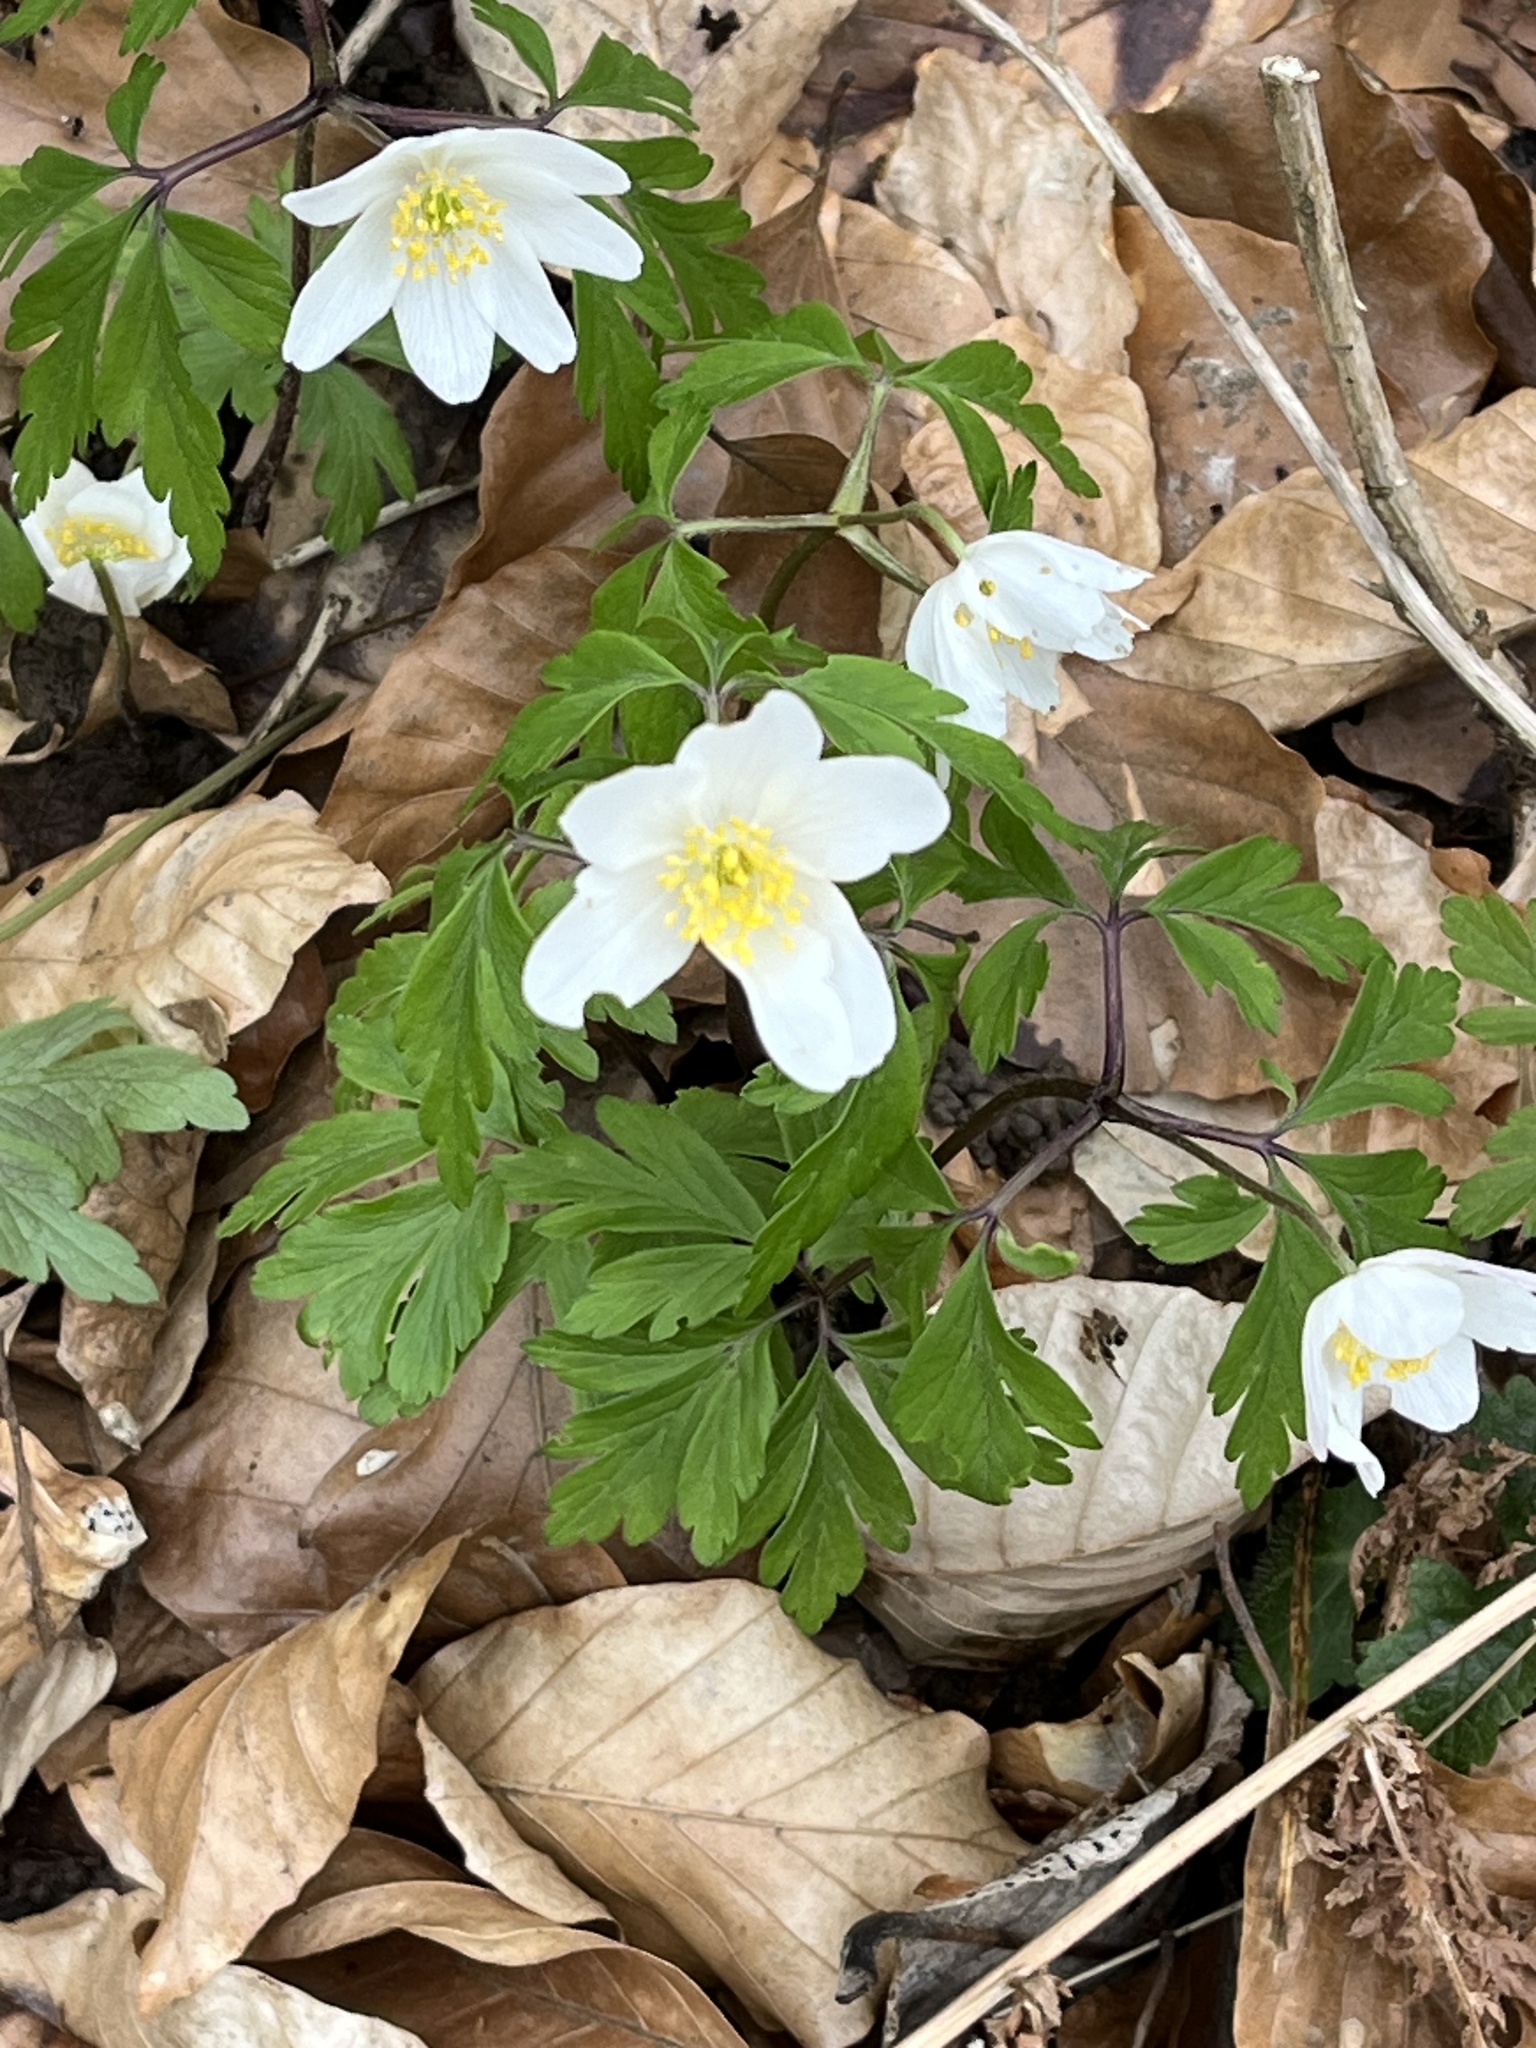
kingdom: Plantae
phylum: Tracheophyta
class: Magnoliopsida
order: Ranunculales
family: Ranunculaceae
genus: Anemone
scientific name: Anemone nemorosa
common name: Wood anemone
